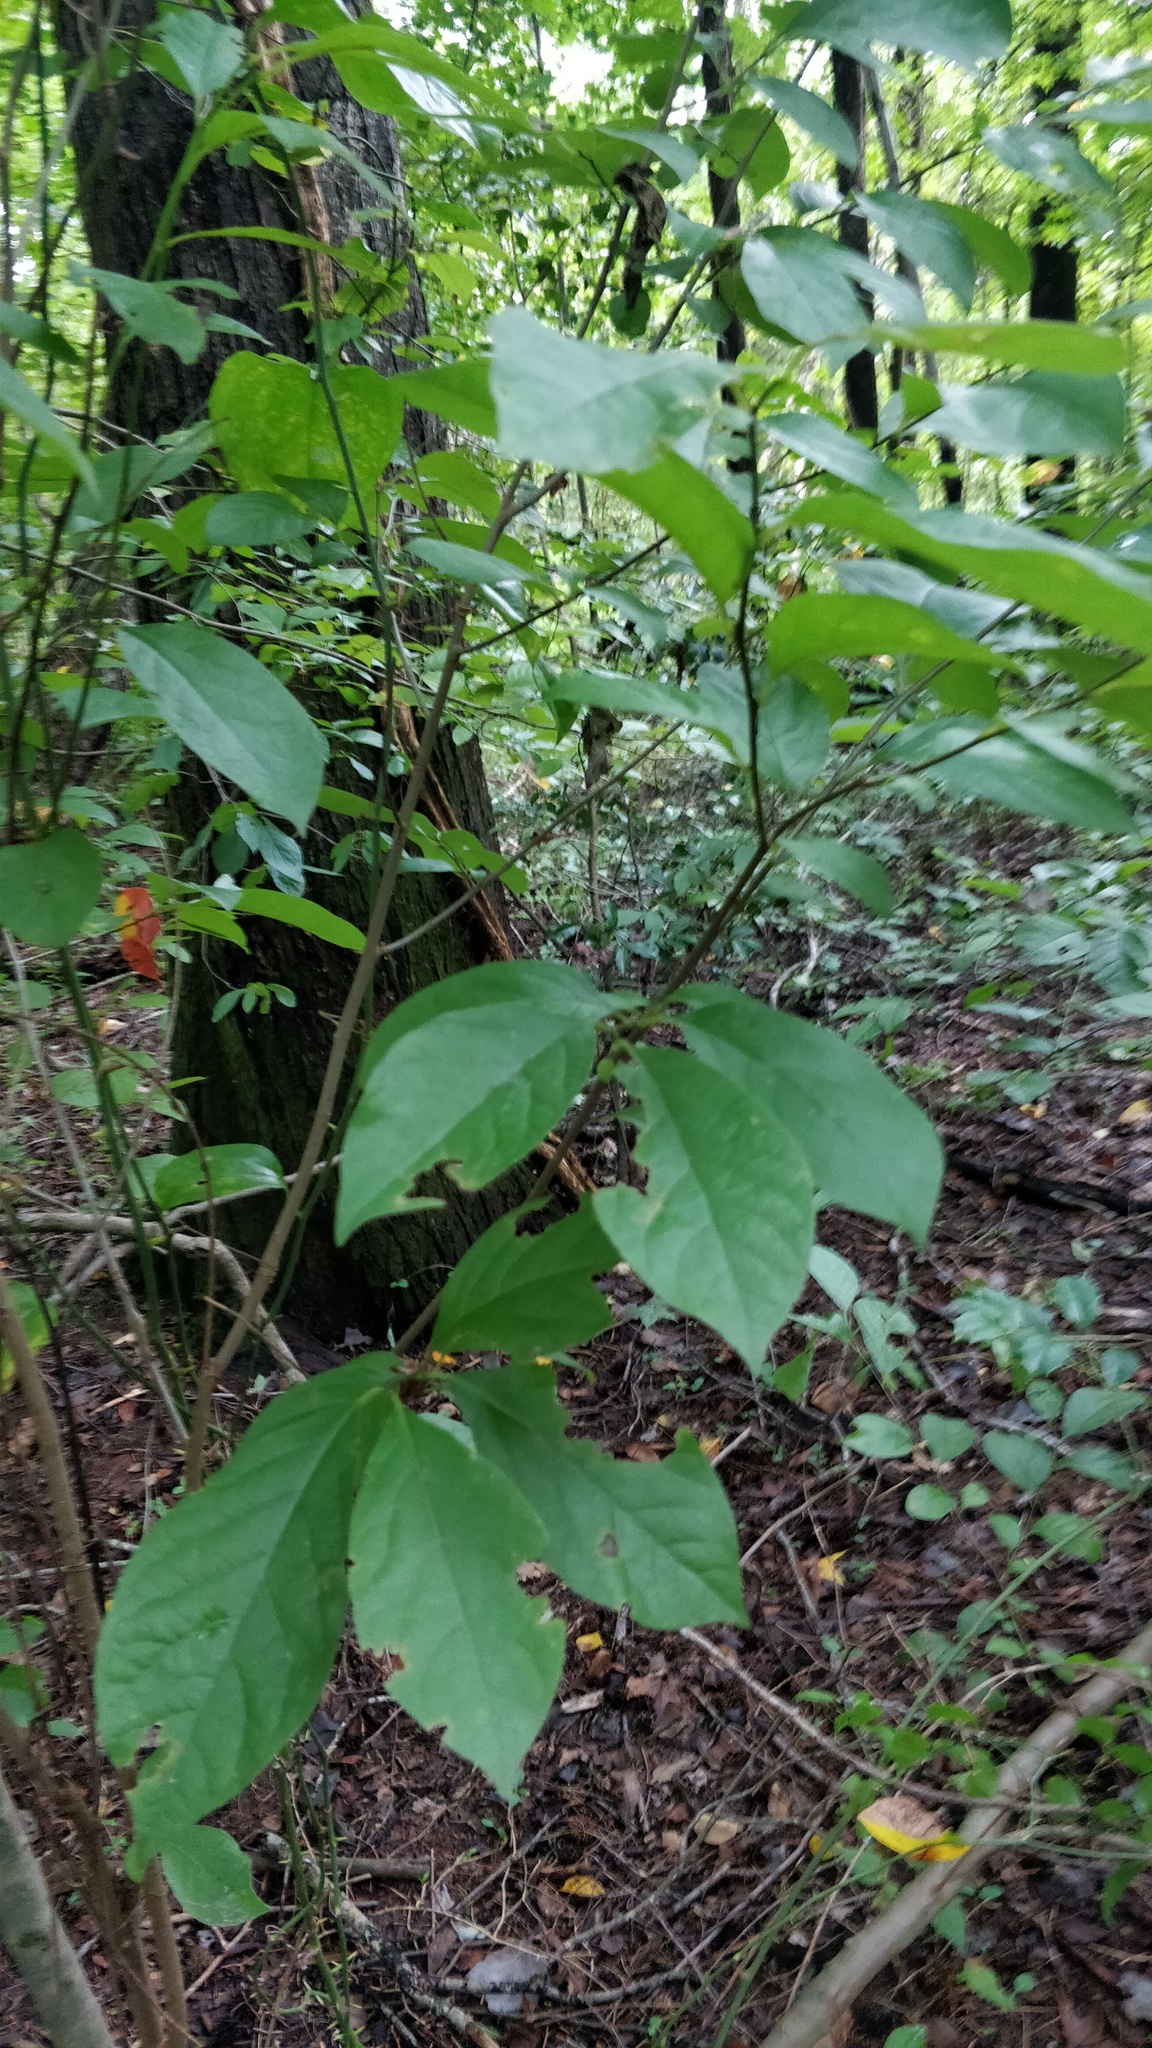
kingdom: Plantae
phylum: Tracheophyta
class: Magnoliopsida
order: Laurales
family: Lauraceae
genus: Lindera
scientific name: Lindera benzoin
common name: Spicebush
